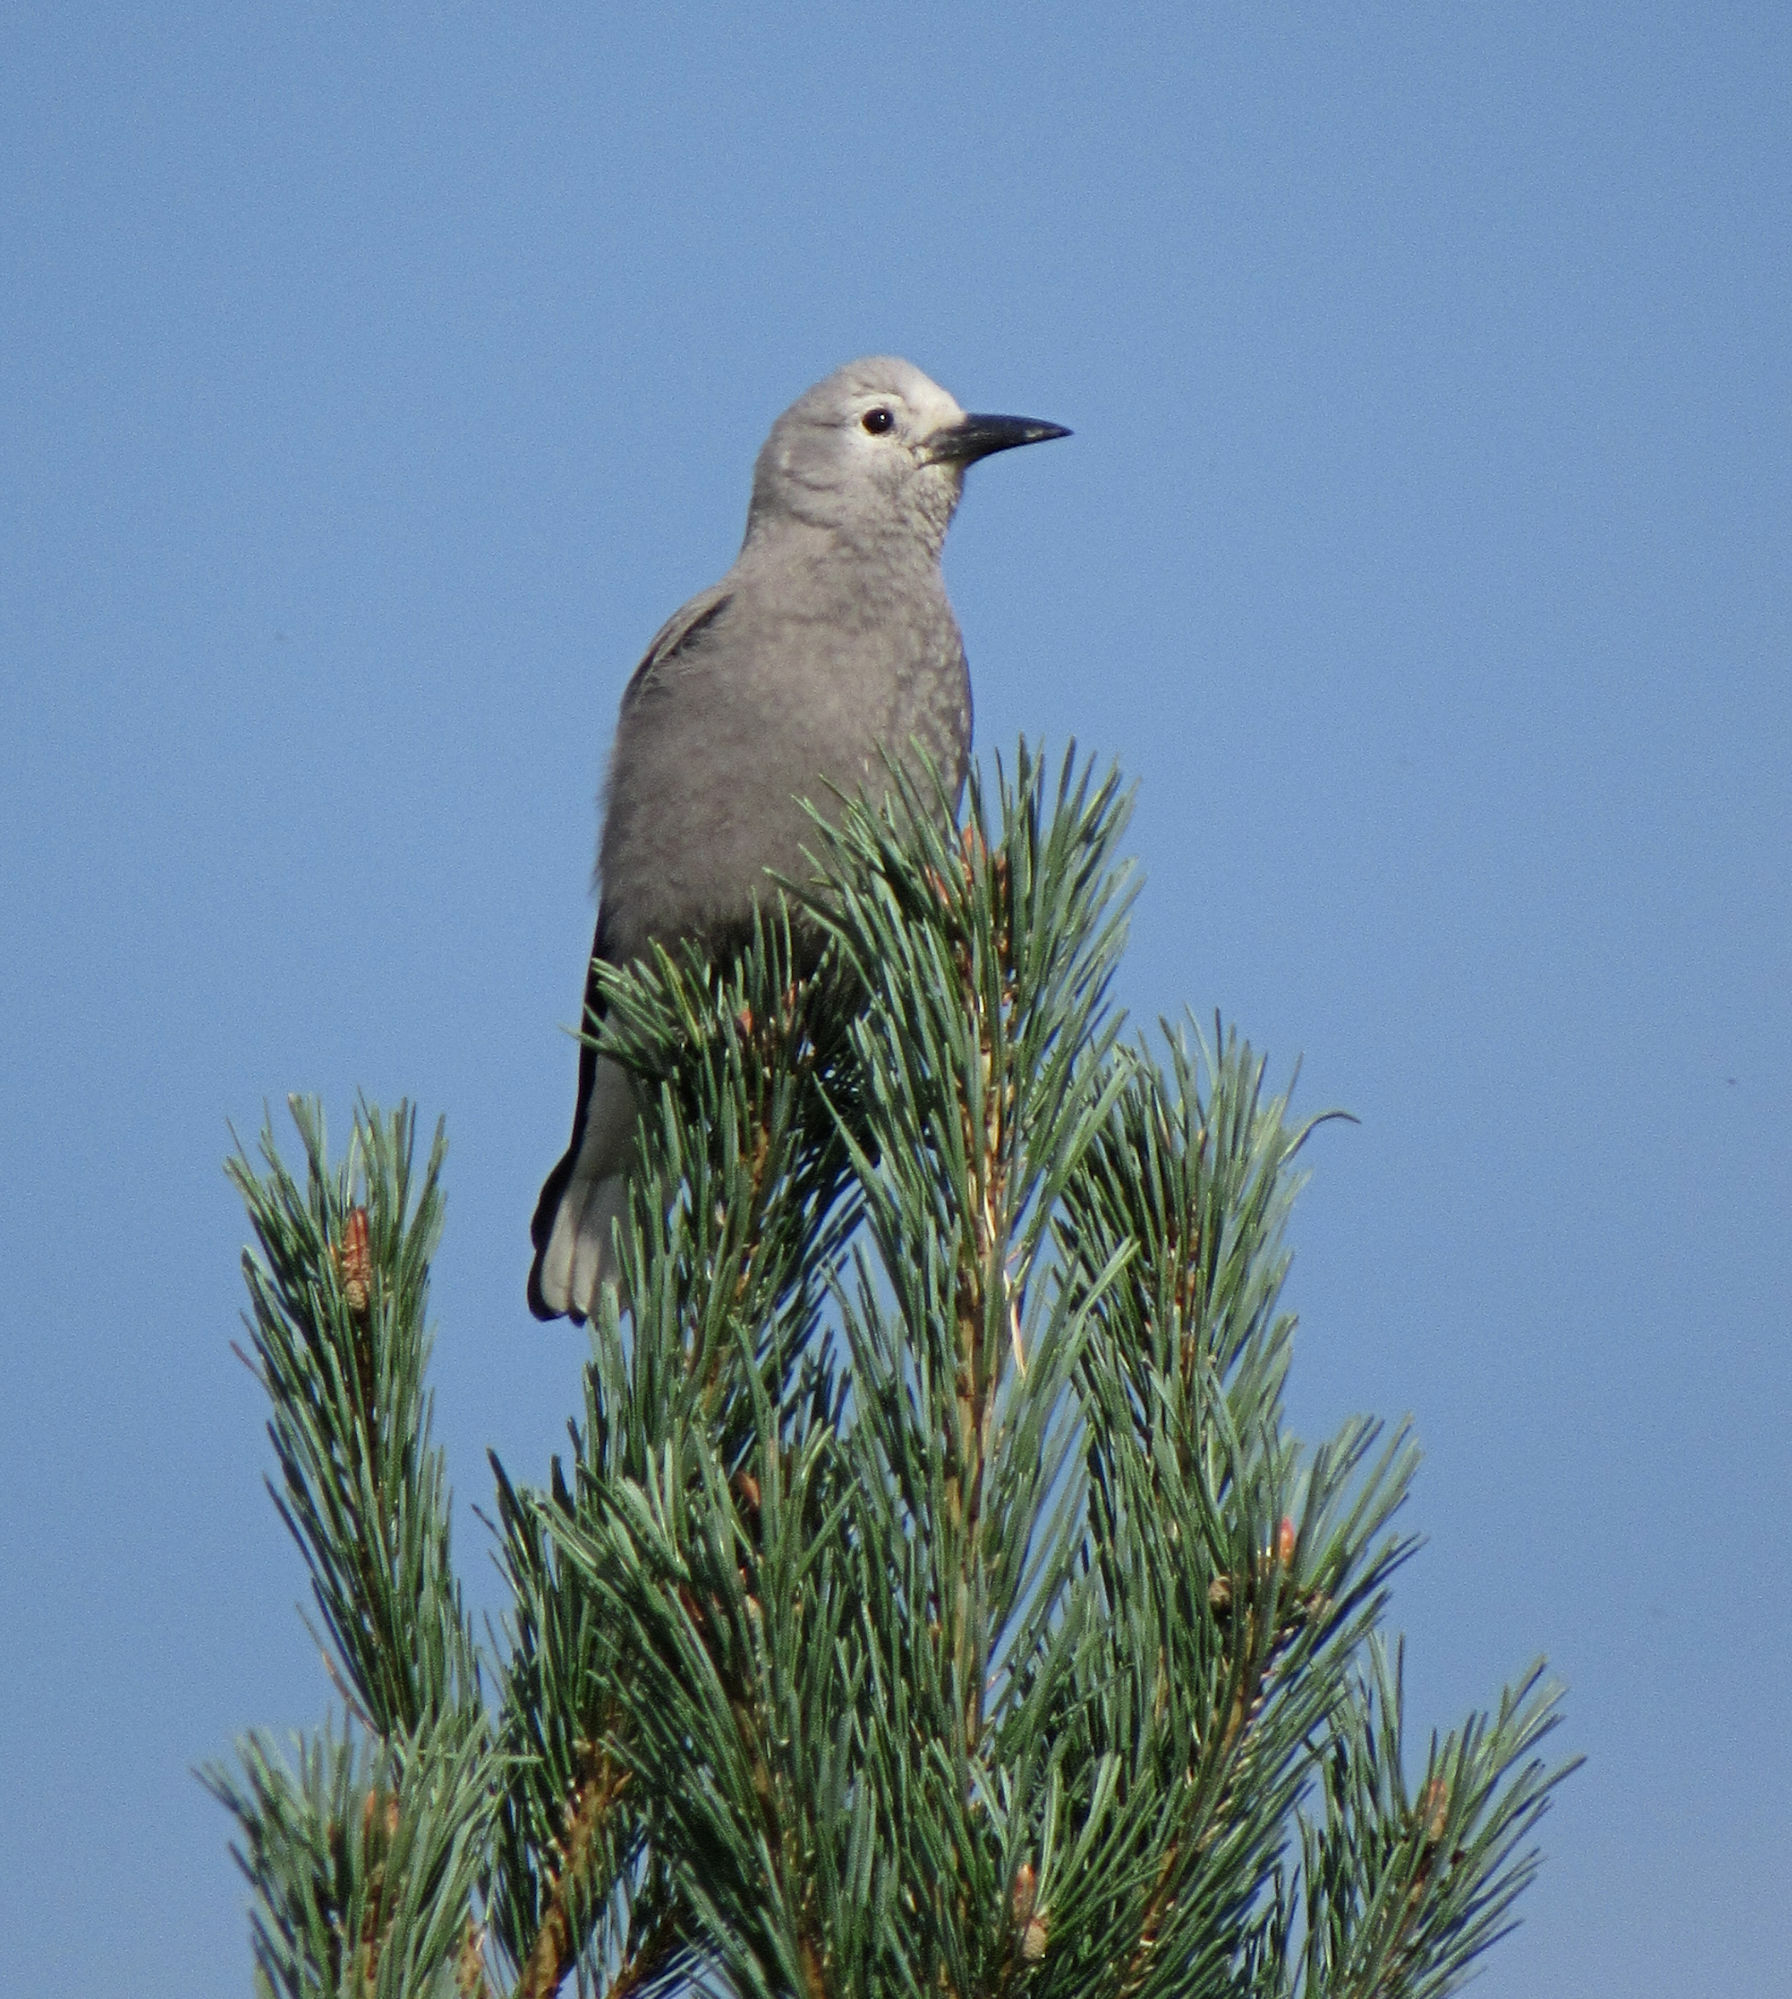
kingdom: Animalia
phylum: Chordata
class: Aves
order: Passeriformes
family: Corvidae
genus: Nucifraga
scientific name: Nucifraga columbiana
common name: Clark's nutcracker
